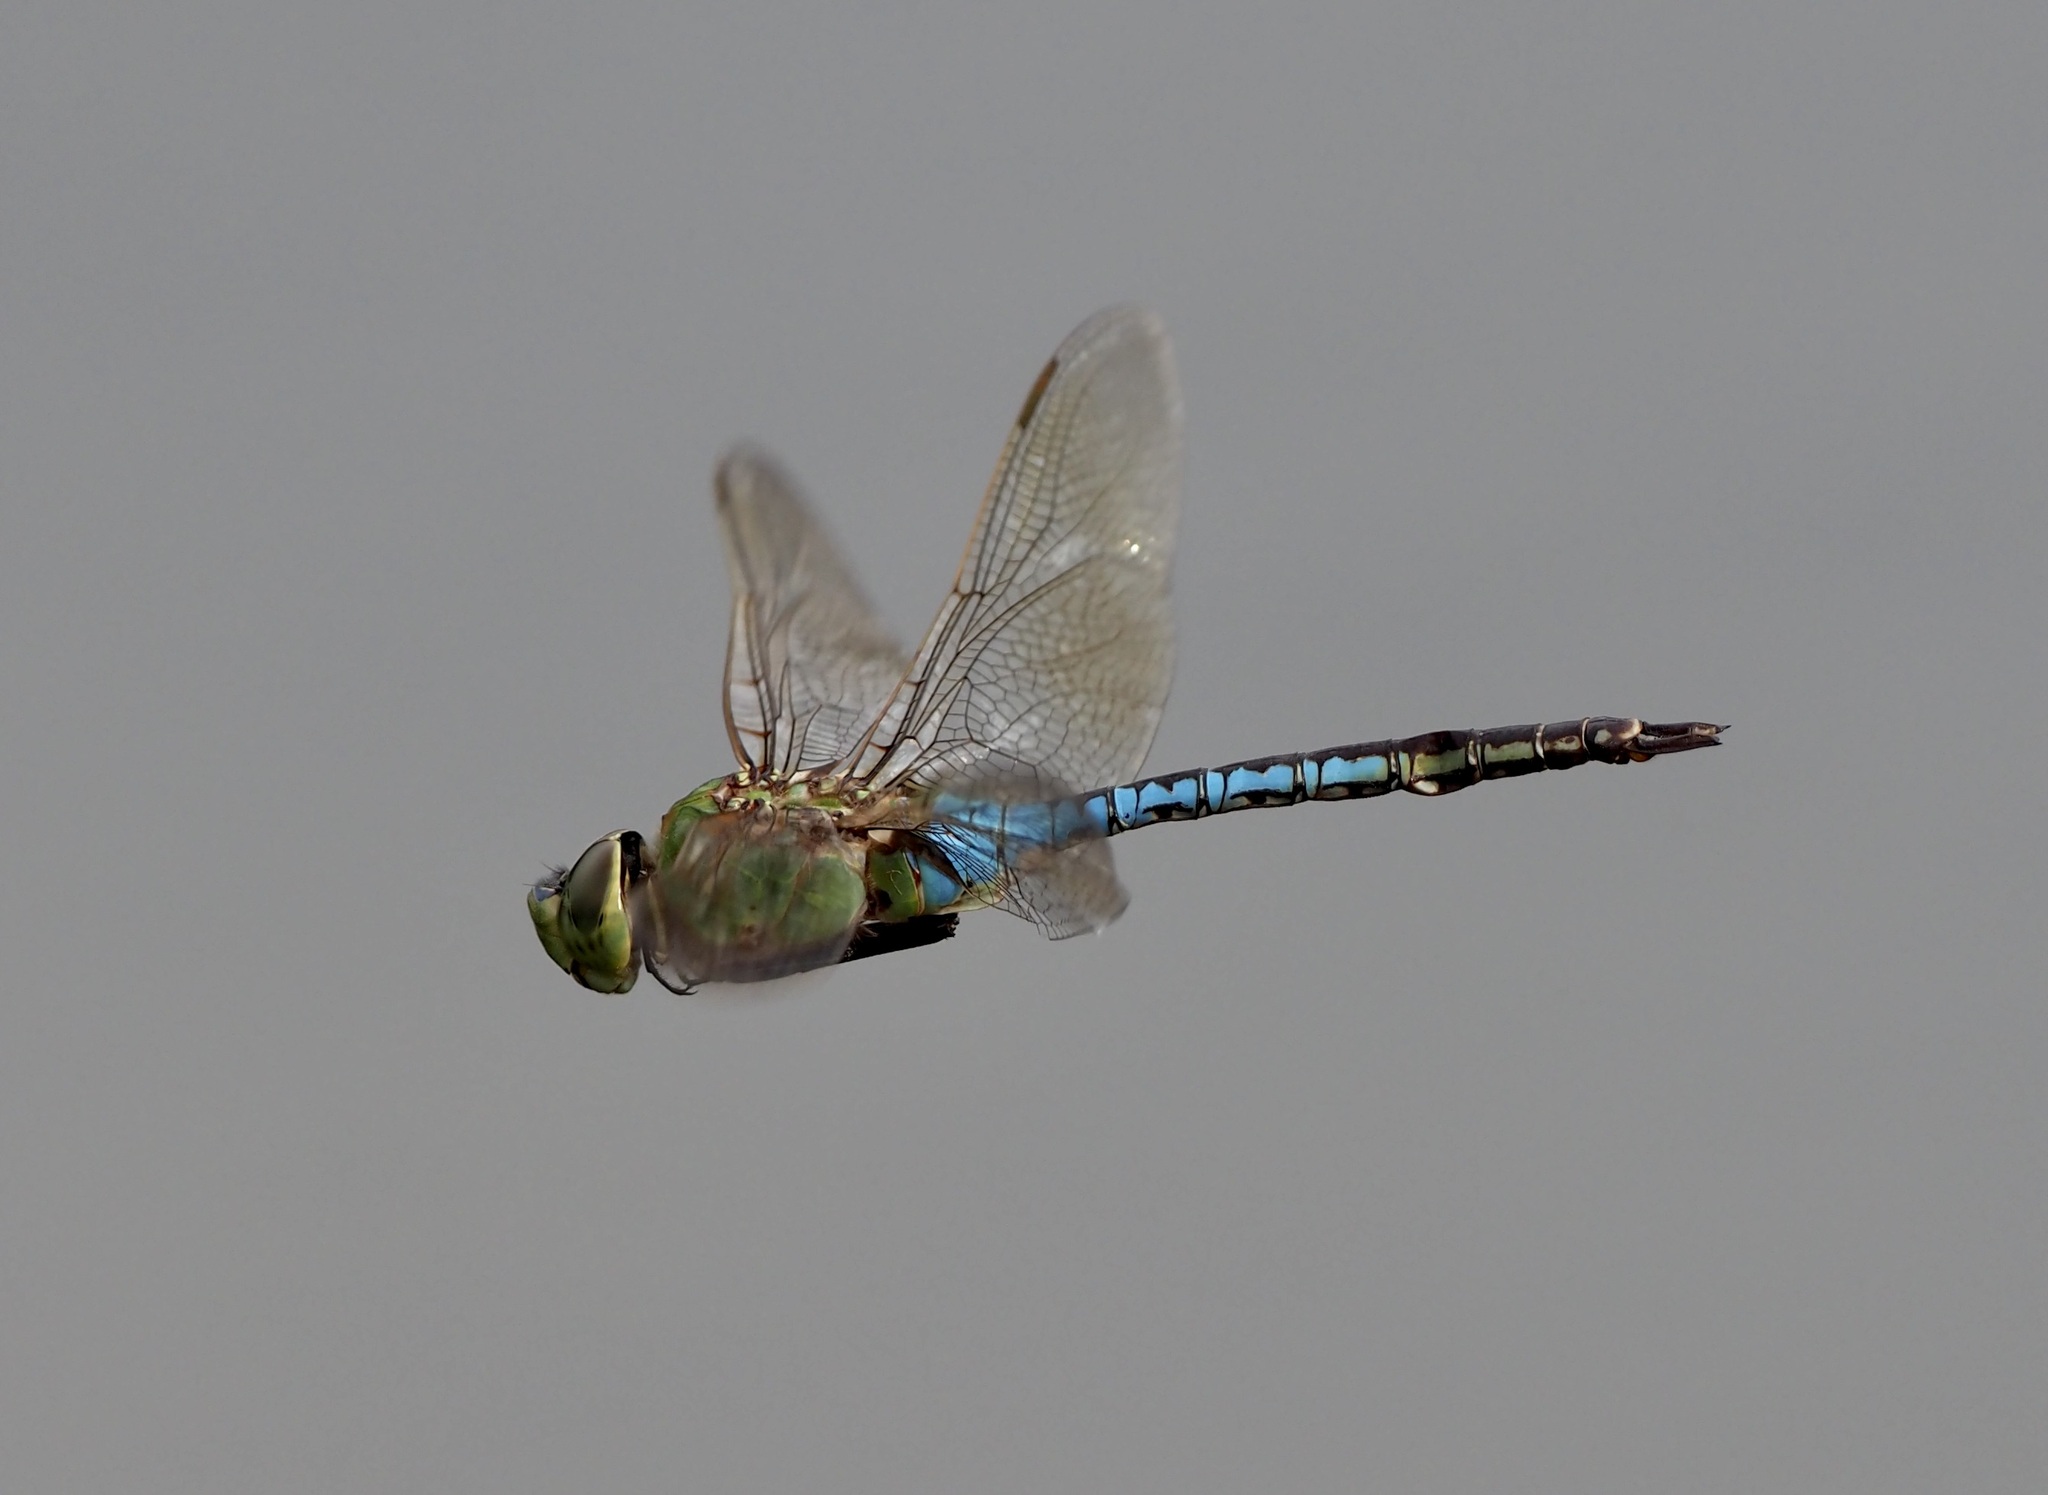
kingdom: Animalia
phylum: Arthropoda
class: Insecta
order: Odonata
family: Aeshnidae
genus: Anax
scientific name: Anax junius
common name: Common green darner
